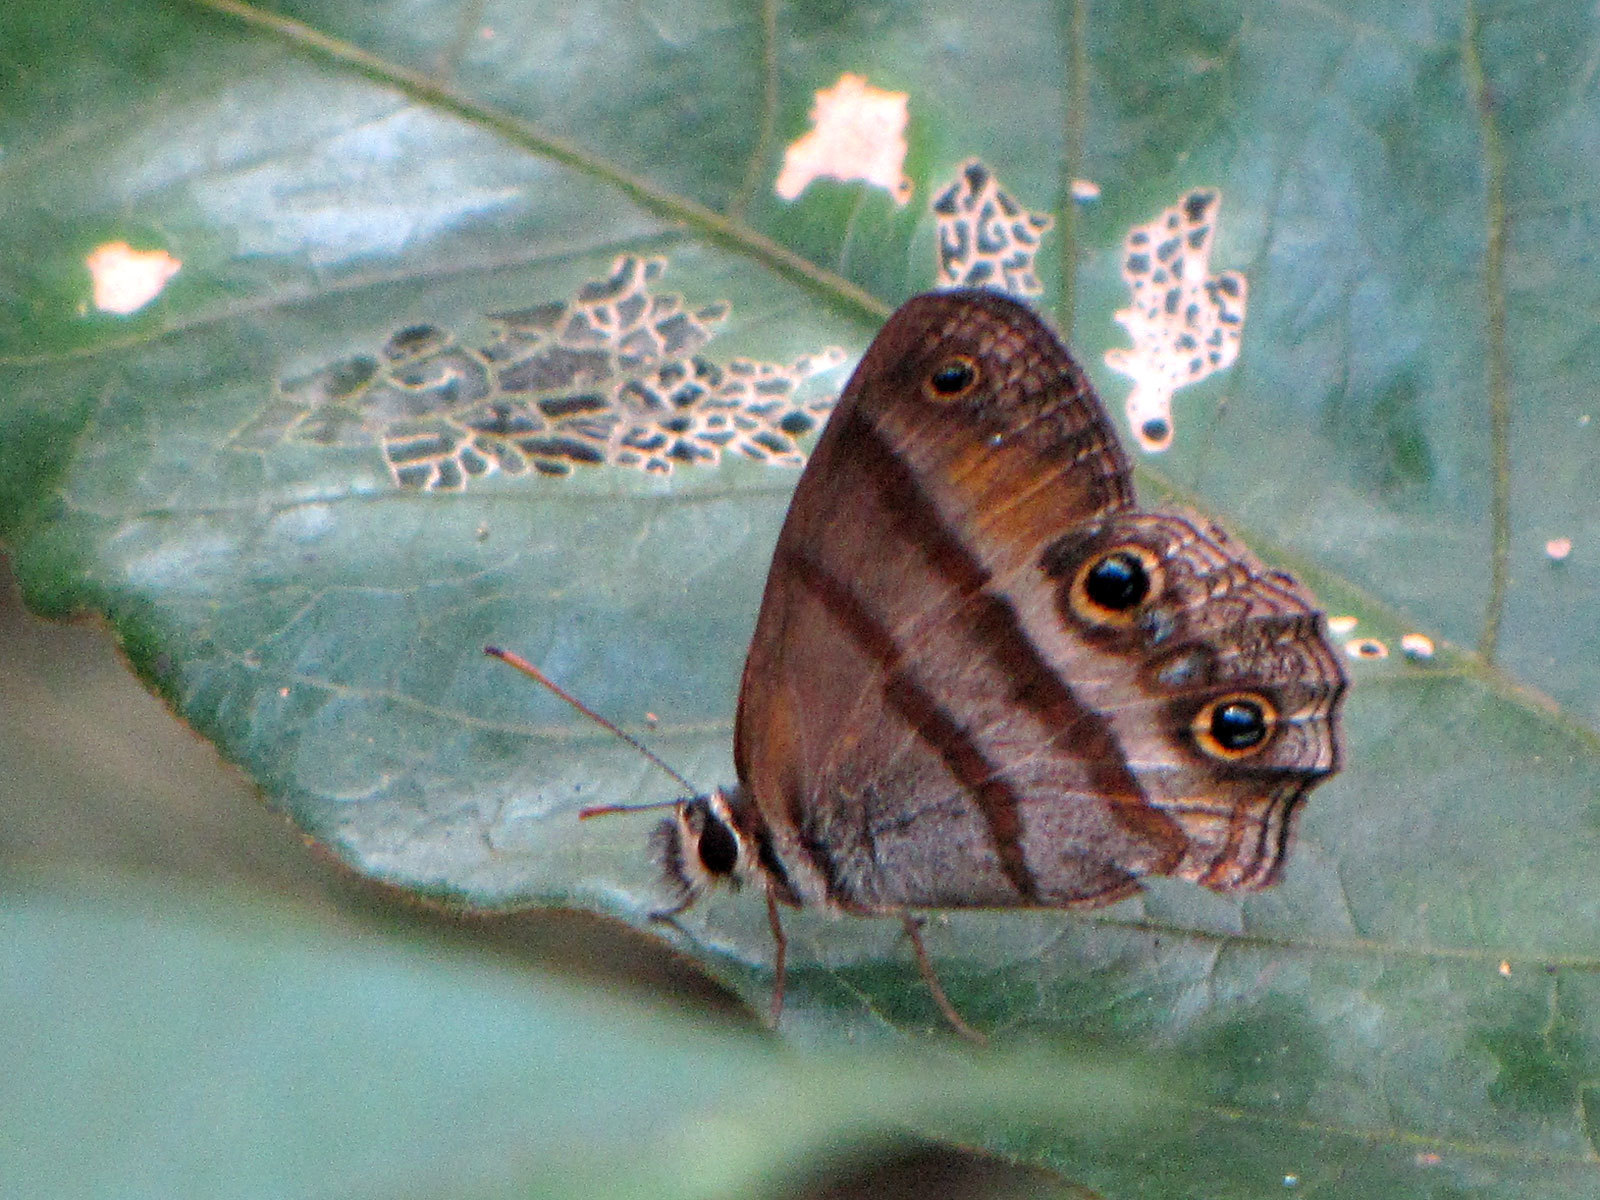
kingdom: Animalia
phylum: Arthropoda
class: Insecta
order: Lepidoptera
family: Nymphalidae
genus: Argyreuptychia
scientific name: Argyreuptychia penelope
